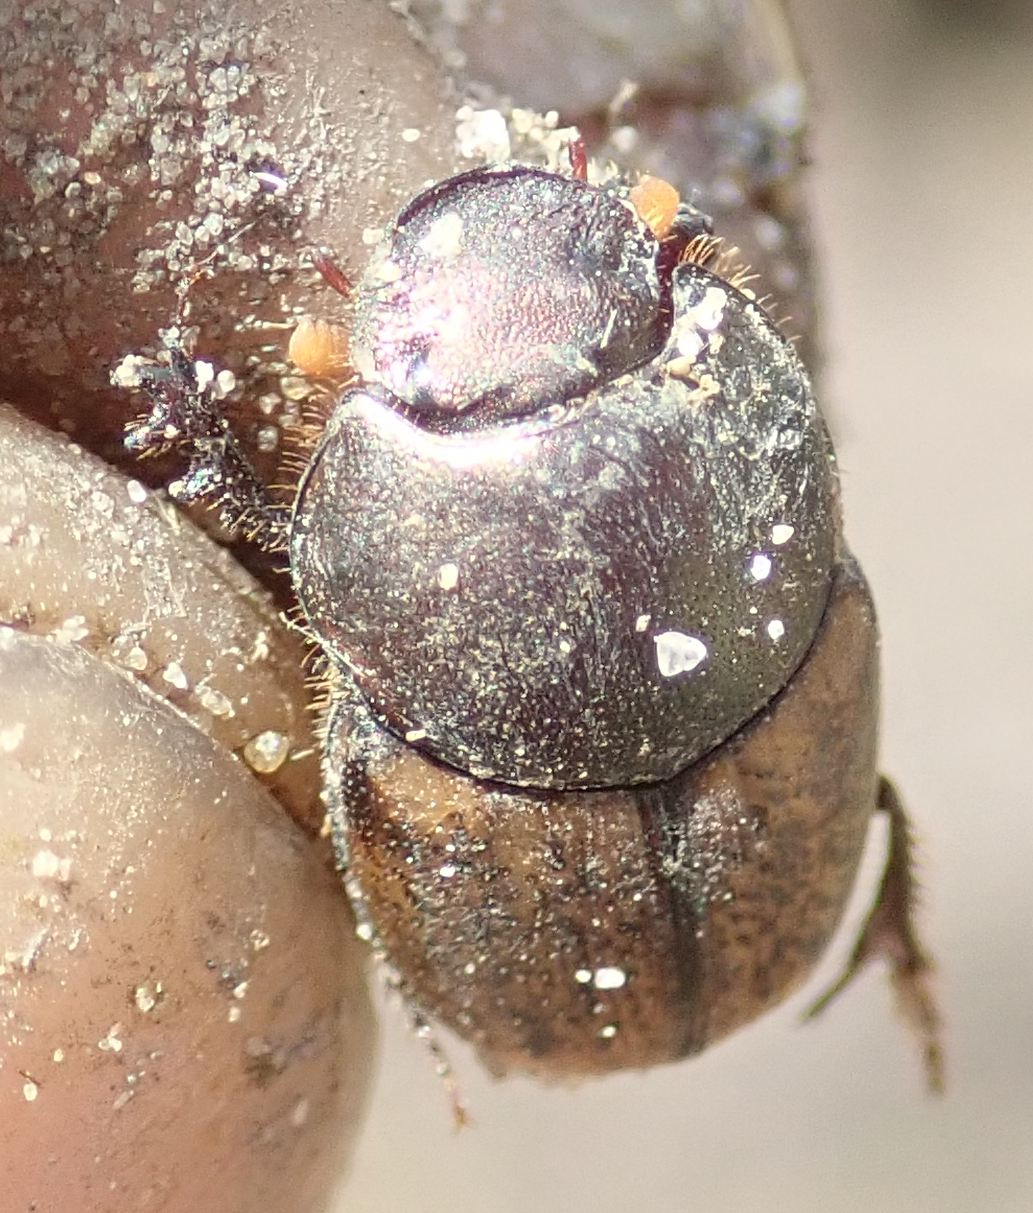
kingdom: Animalia
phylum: Arthropoda
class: Insecta
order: Coleoptera
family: Scarabaeidae
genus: Onthophagus
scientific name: Onthophagus plebejus
